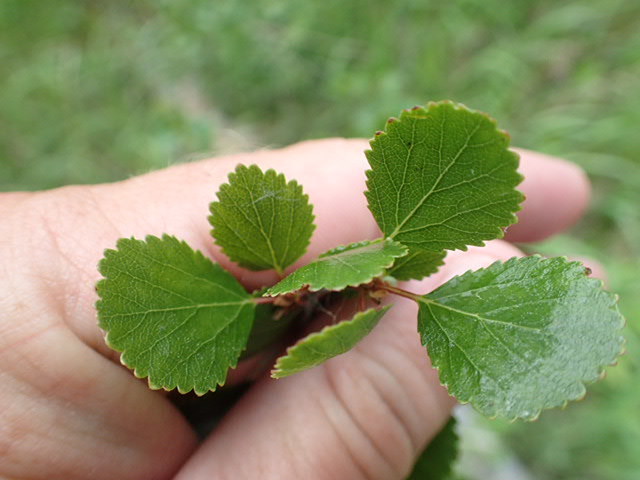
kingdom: Plantae
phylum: Tracheophyta
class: Magnoliopsida
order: Fagales
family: Betulaceae
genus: Betula
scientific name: Betula glandulosa
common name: Dwarf birch
